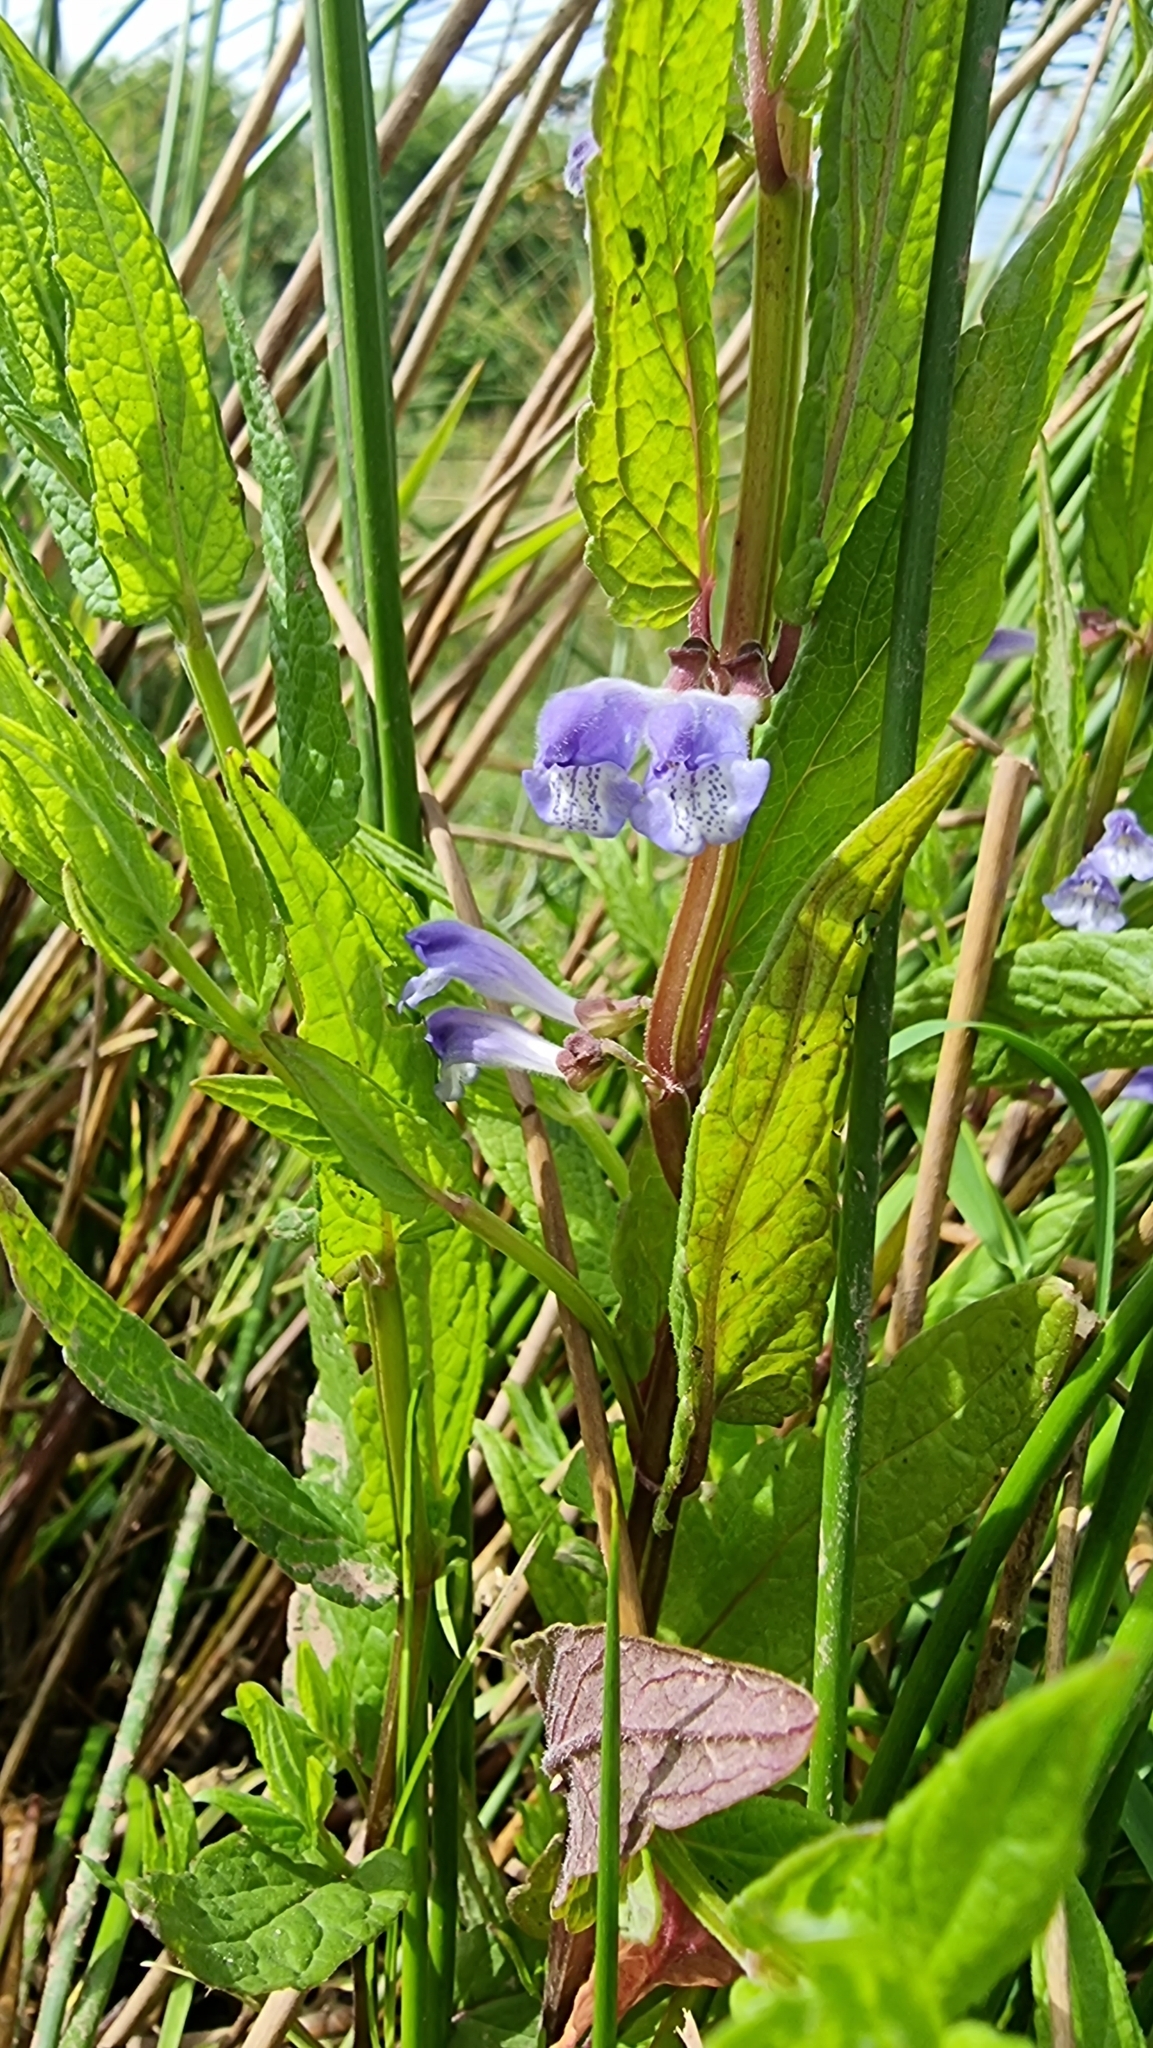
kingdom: Plantae
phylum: Tracheophyta
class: Magnoliopsida
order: Lamiales
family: Lamiaceae
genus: Scutellaria
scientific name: Scutellaria galericulata
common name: Skullcap
